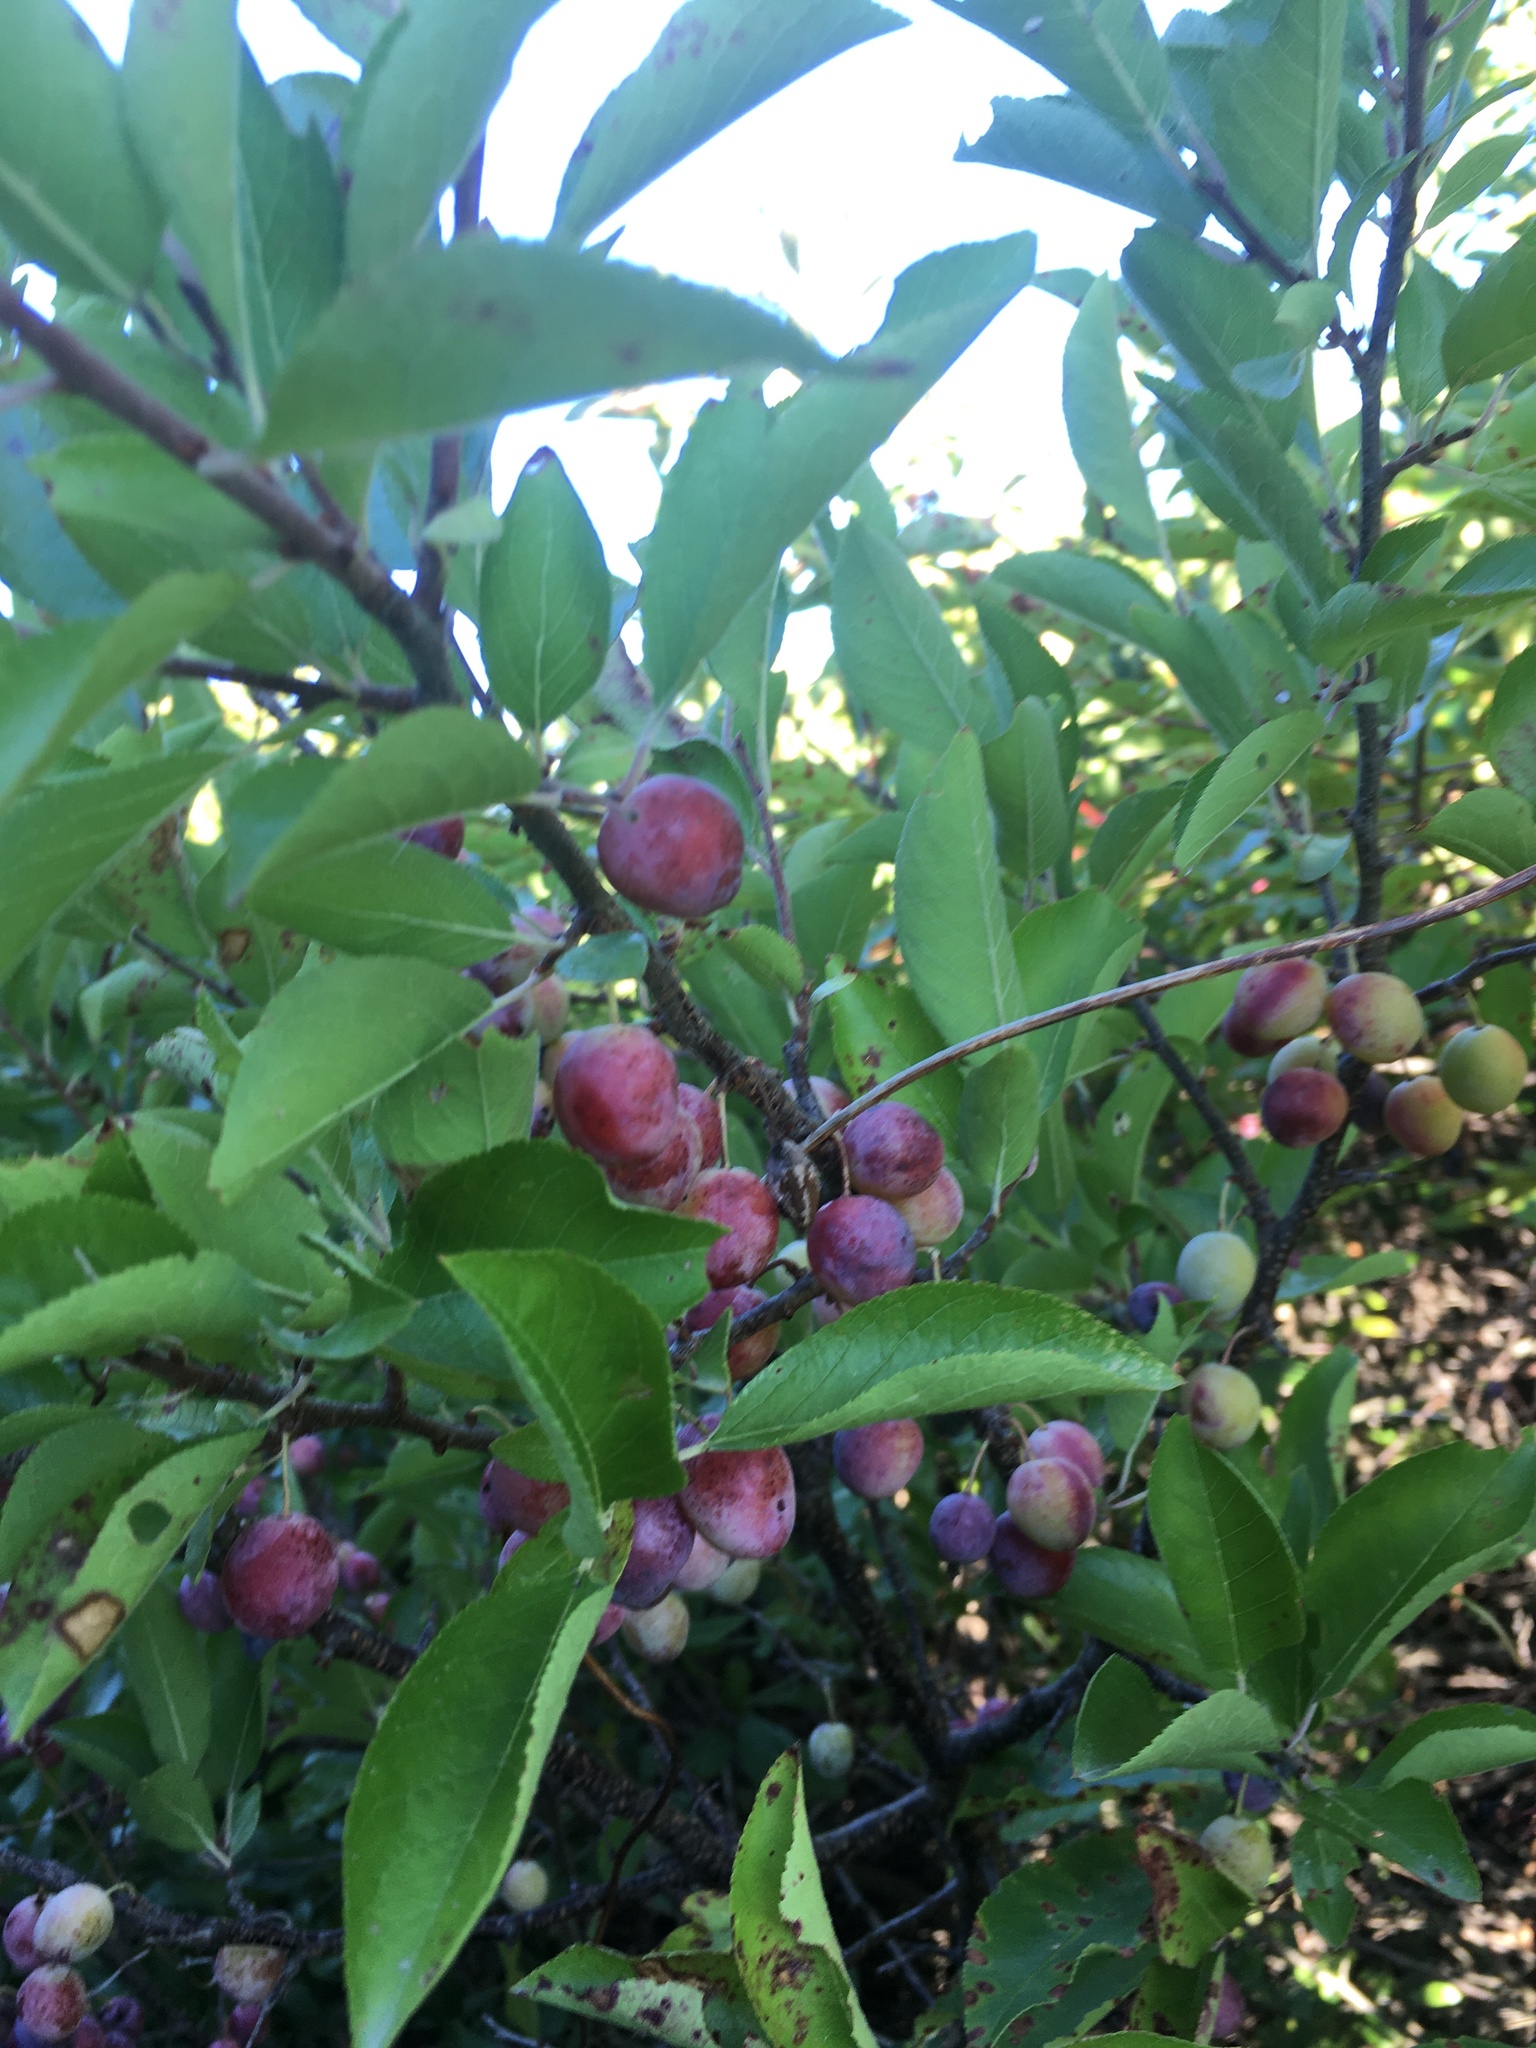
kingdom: Plantae
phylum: Tracheophyta
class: Magnoliopsida
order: Rosales
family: Rosaceae
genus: Prunus
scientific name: Prunus maritima
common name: Beach plum
